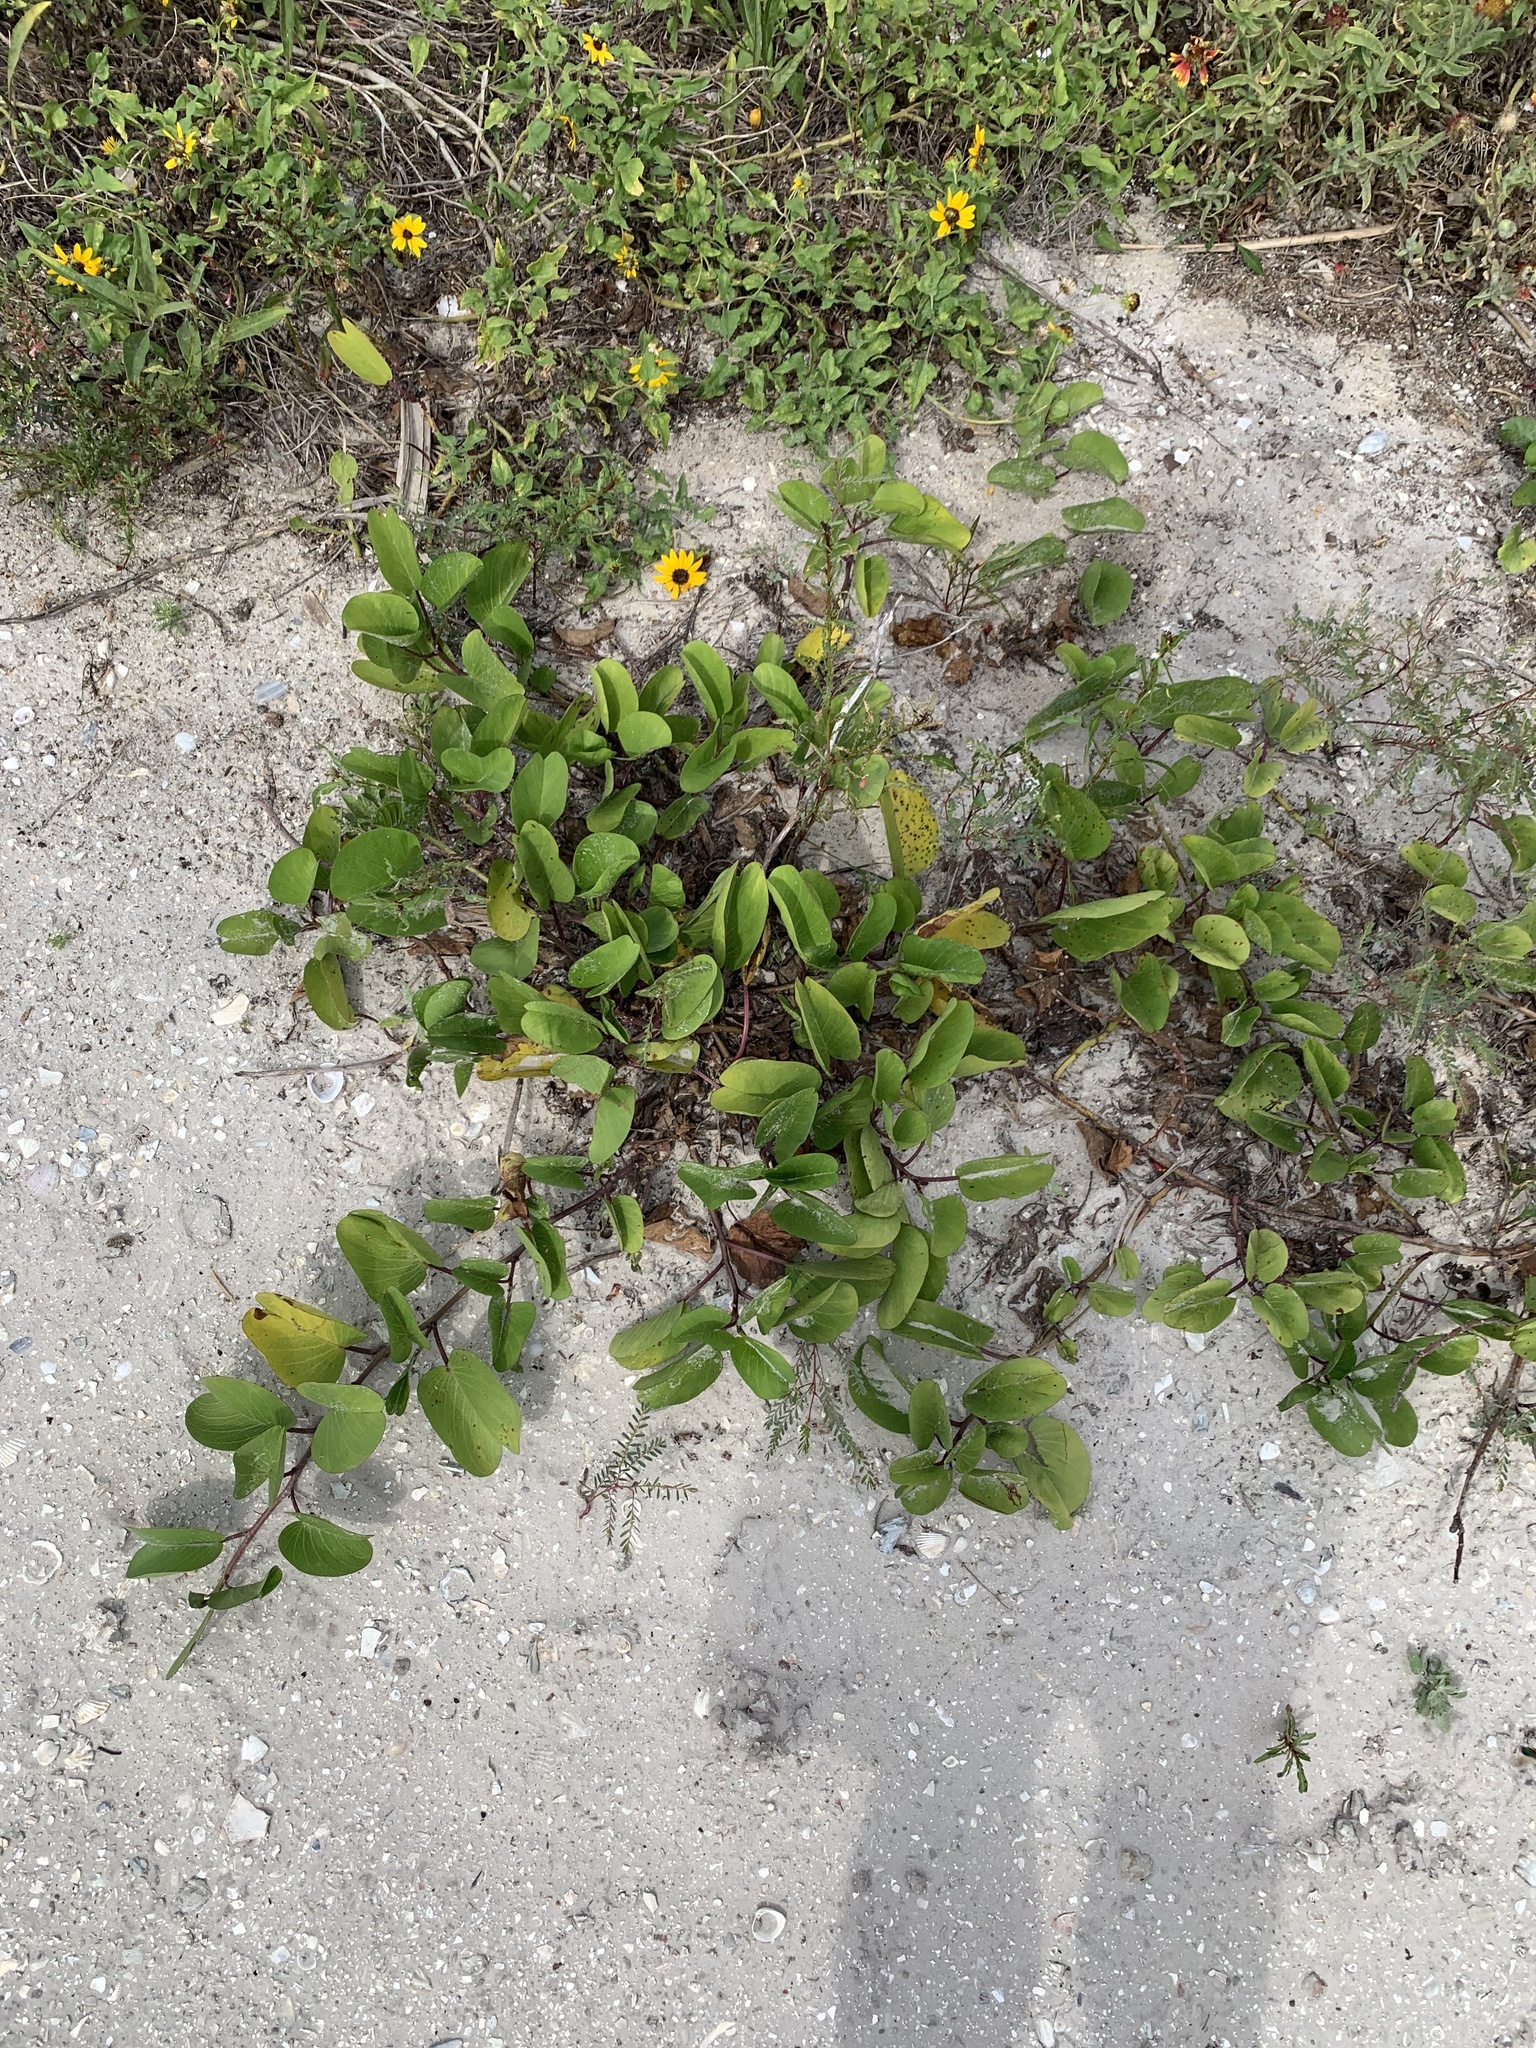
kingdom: Plantae
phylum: Tracheophyta
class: Magnoliopsida
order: Solanales
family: Convolvulaceae
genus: Ipomoea
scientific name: Ipomoea pes-caprae
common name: Beach morning glory
